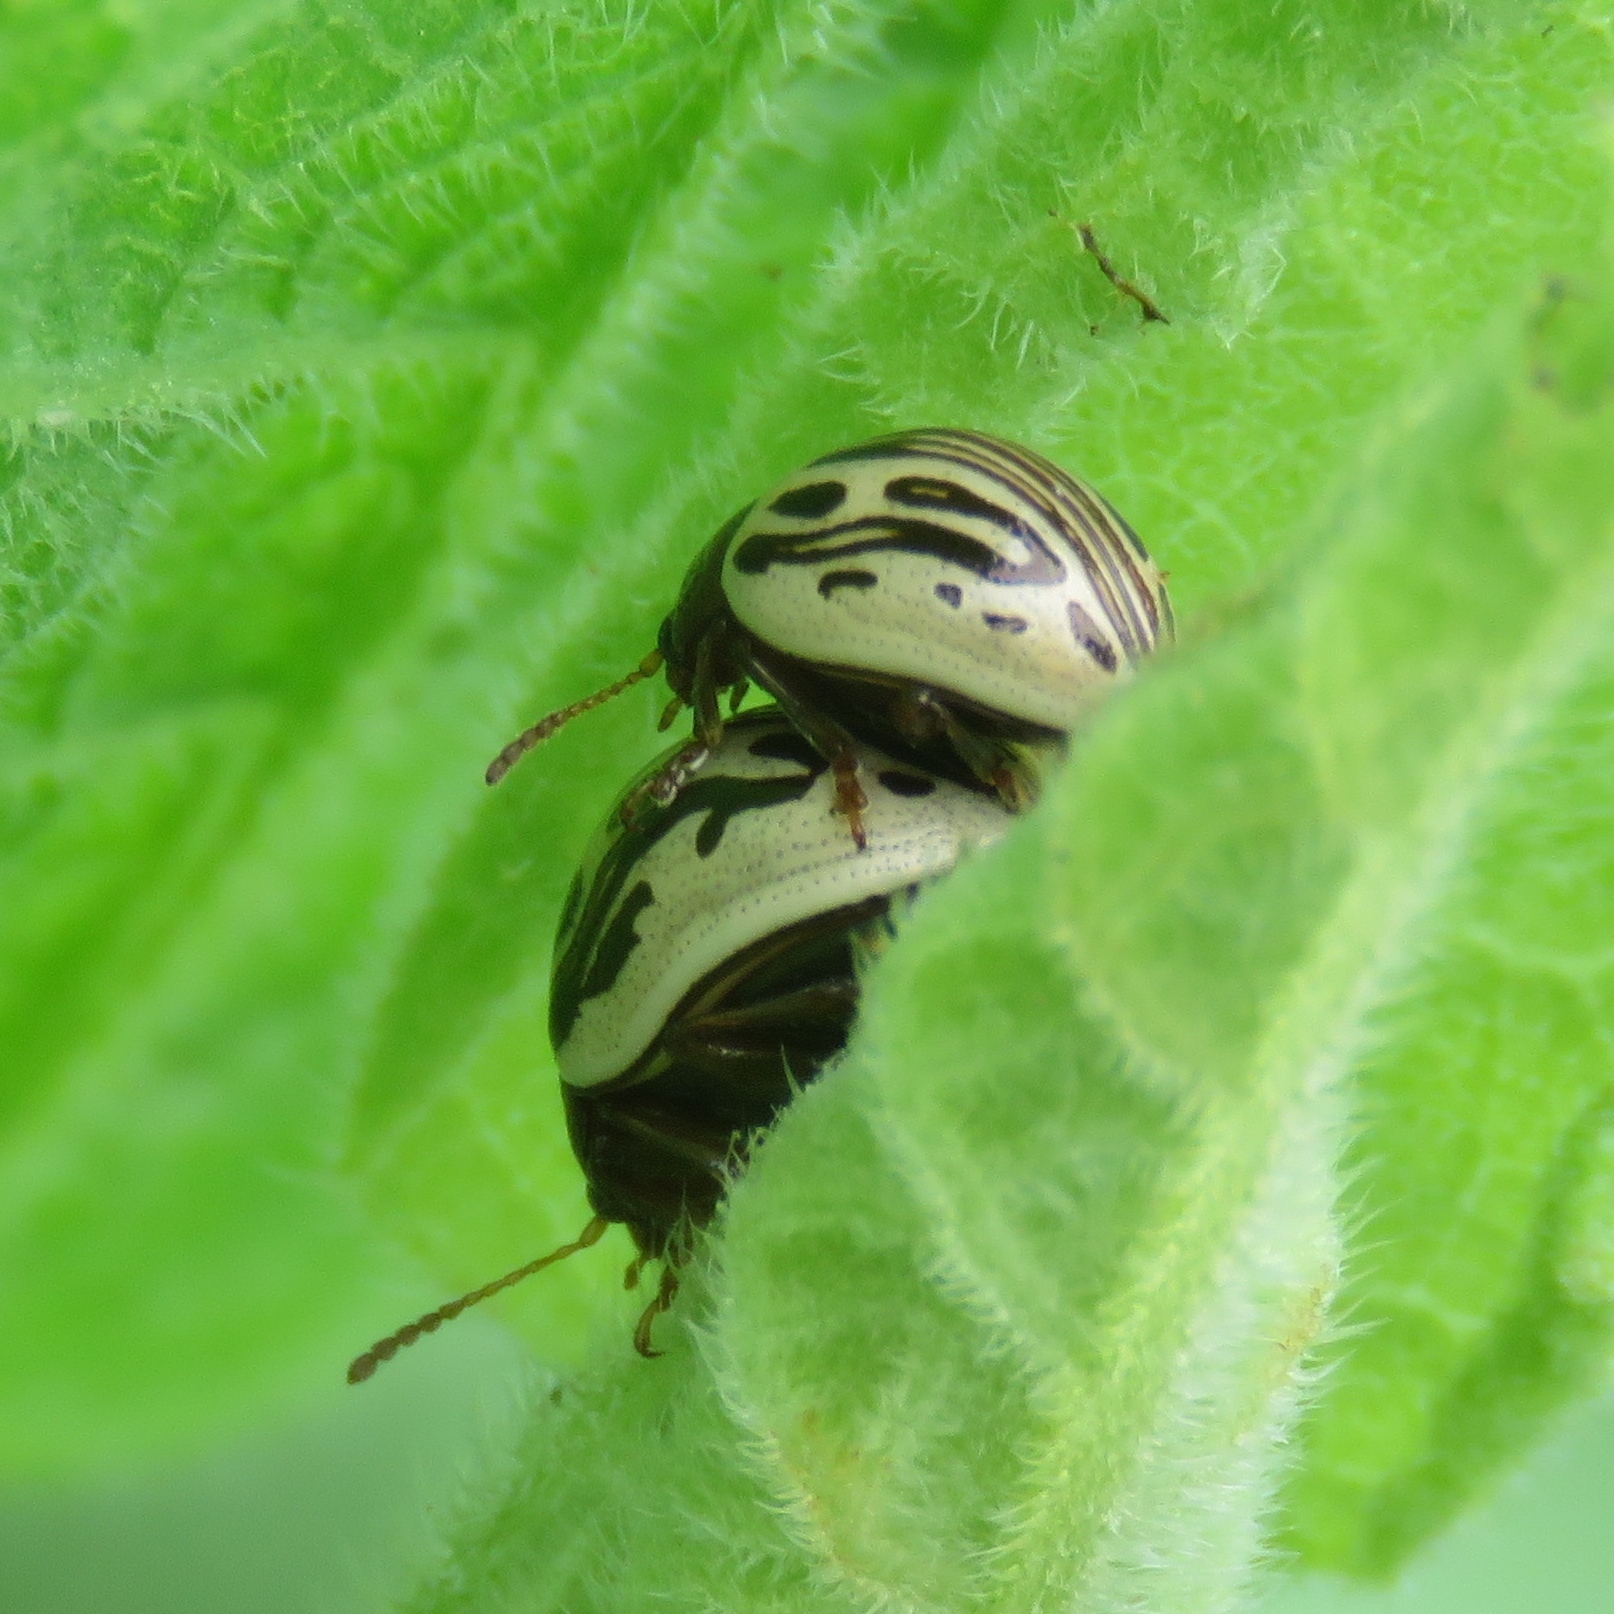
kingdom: Animalia
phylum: Arthropoda
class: Insecta
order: Coleoptera
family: Chrysomelidae
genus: Calligrapha
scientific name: Calligrapha
